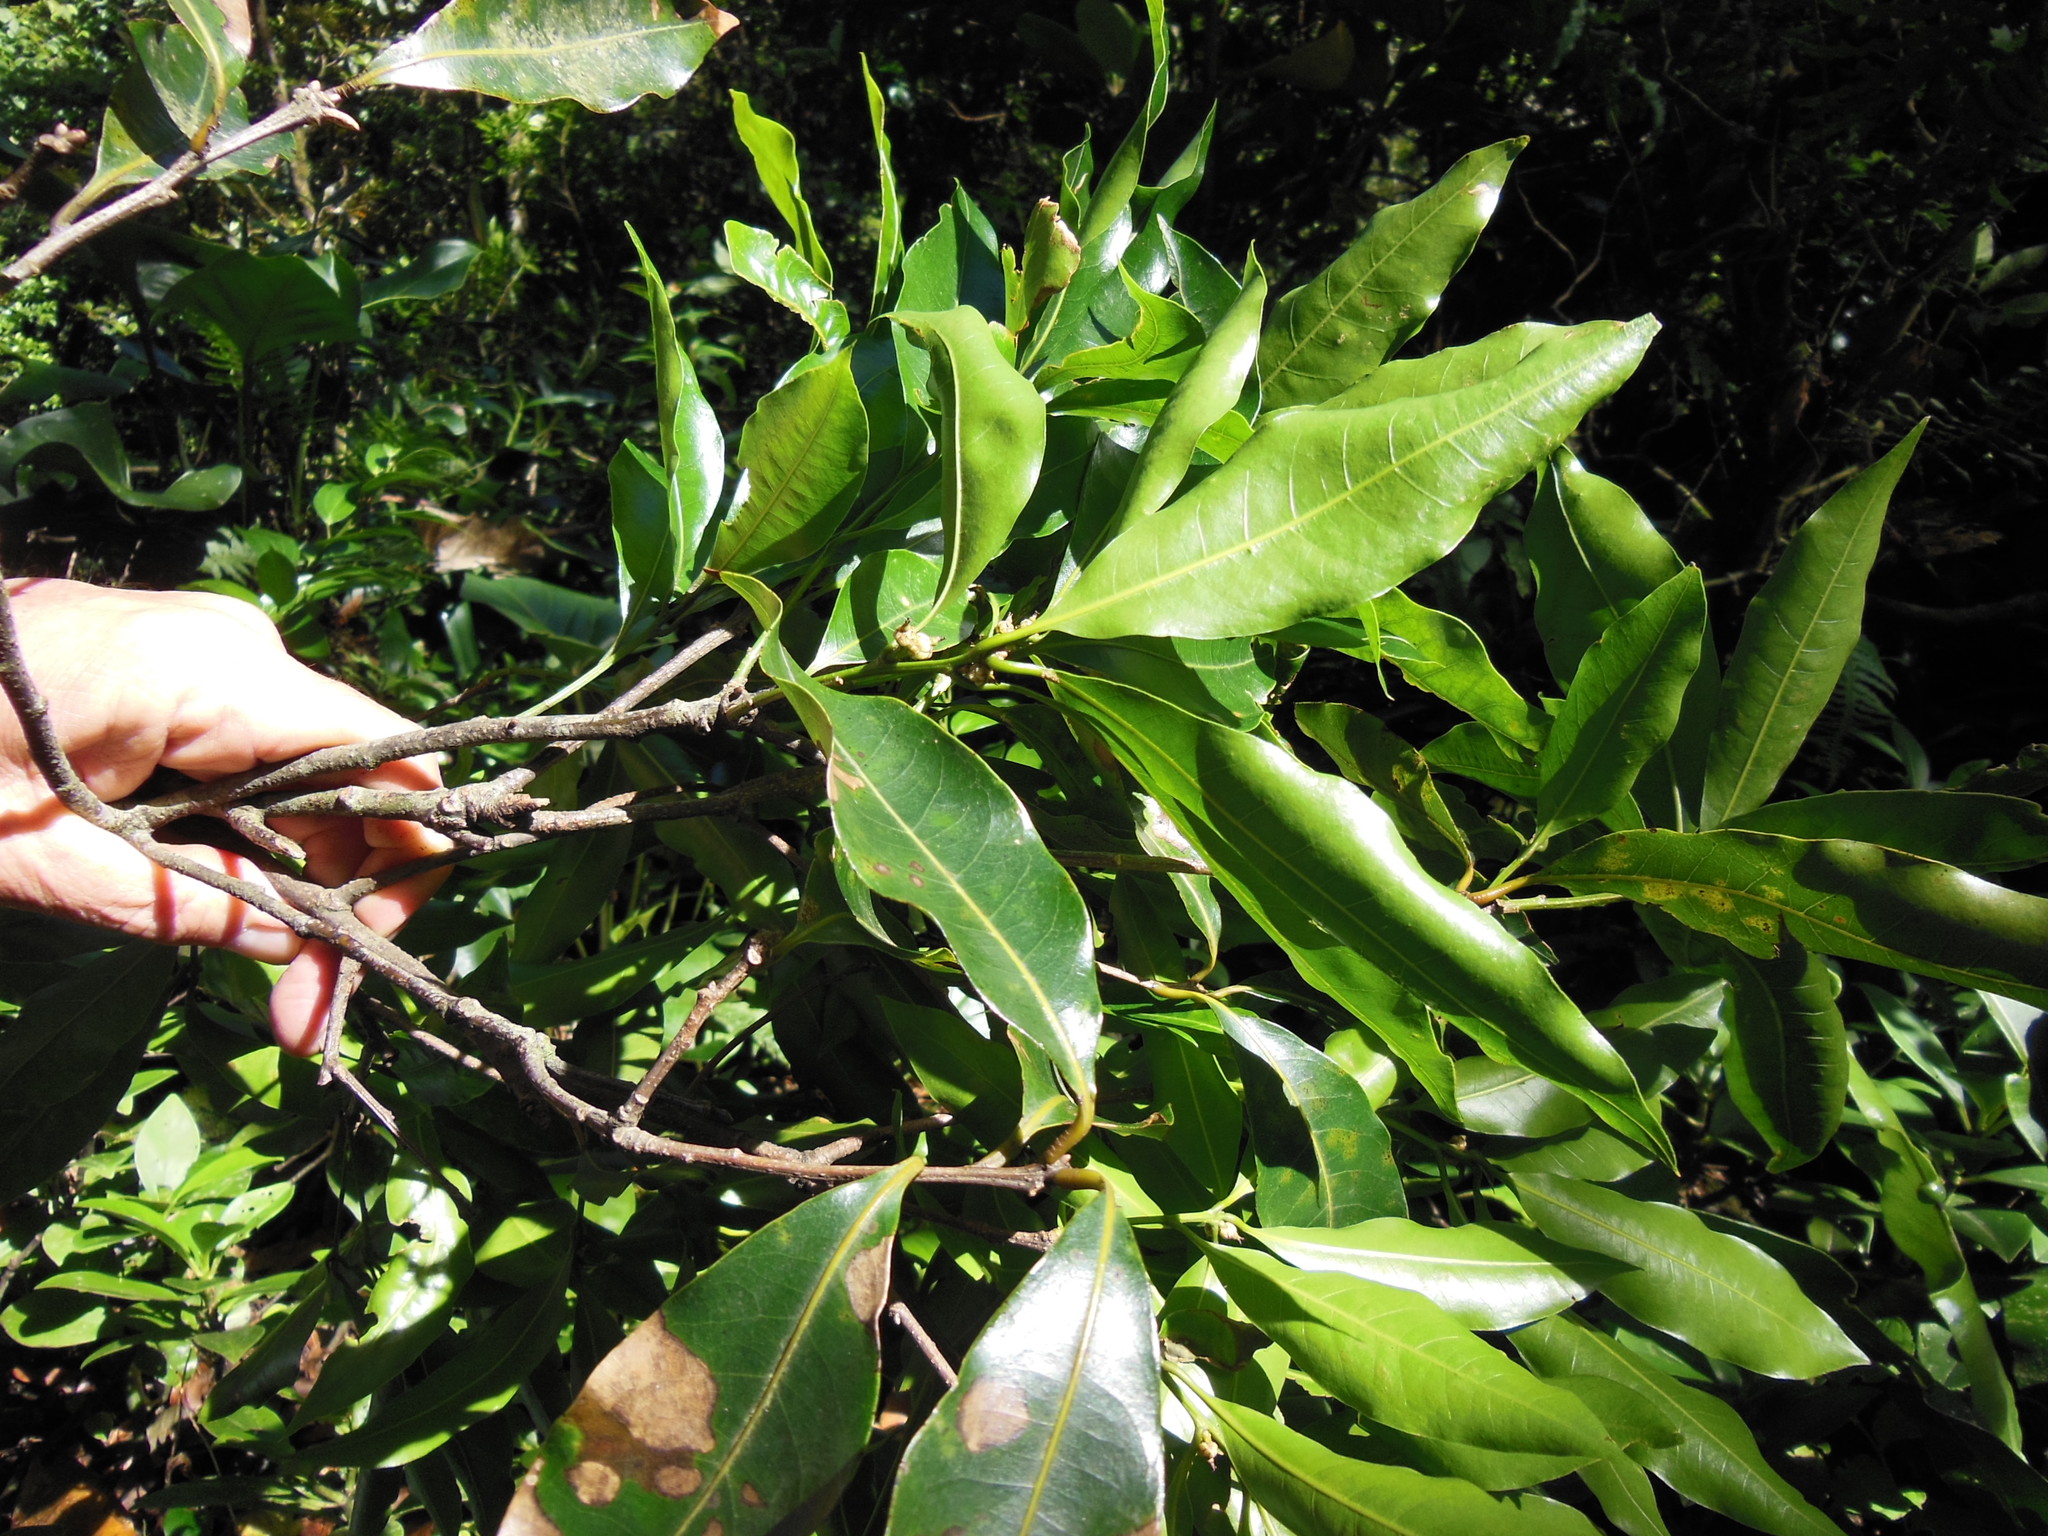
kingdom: Plantae
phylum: Tracheophyta
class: Magnoliopsida
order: Fagales
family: Fagaceae
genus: Quercus
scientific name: Quercus salicifolia
